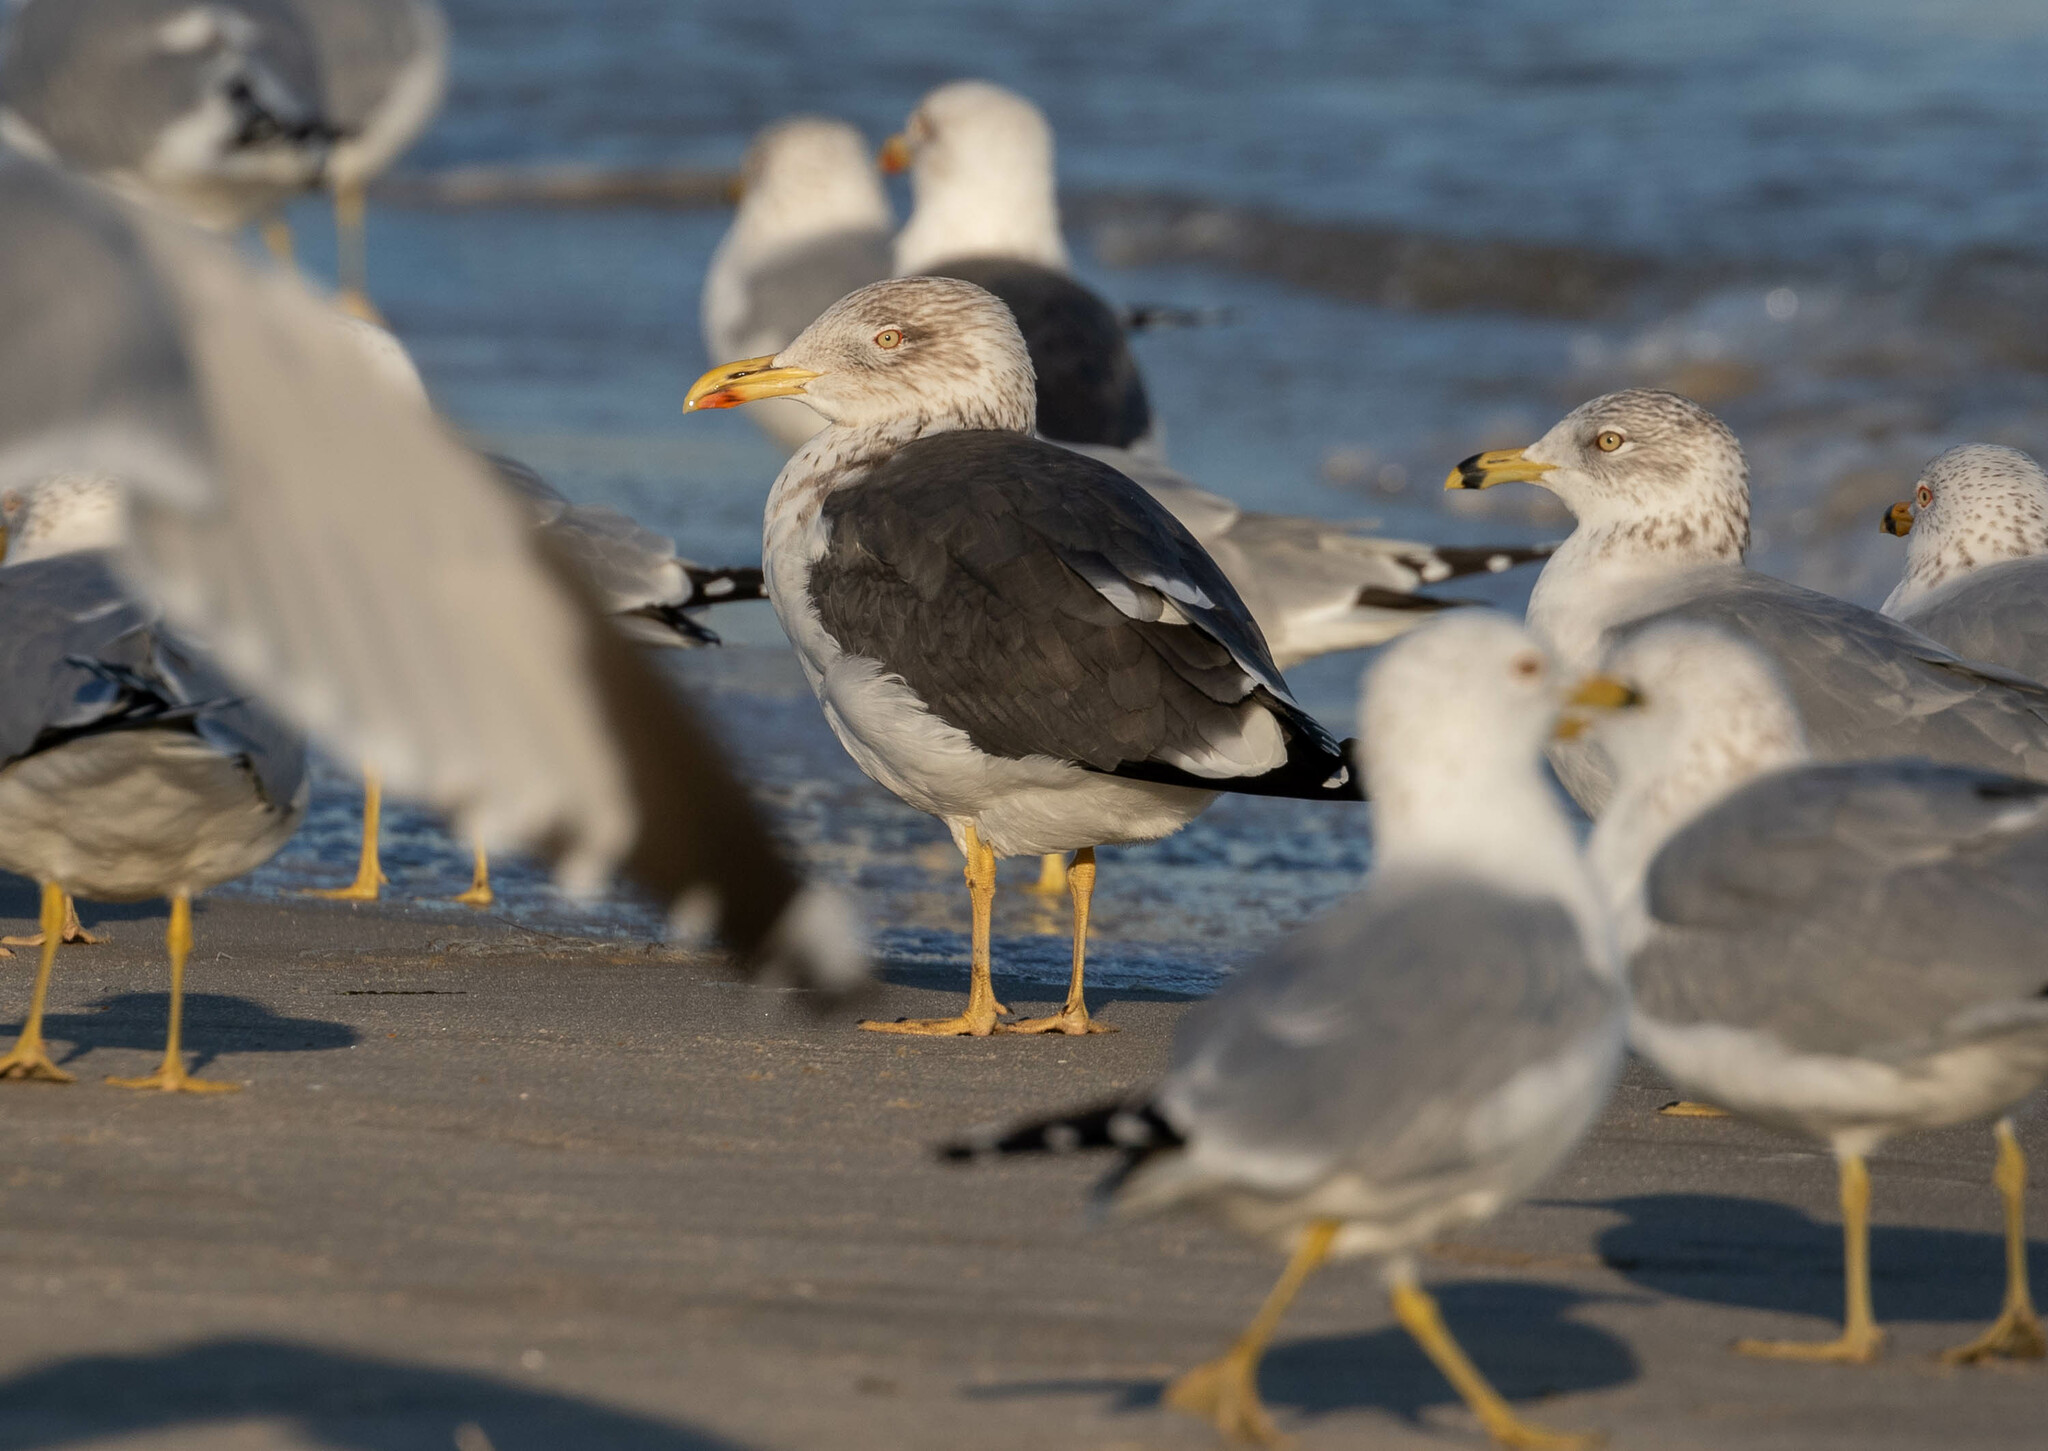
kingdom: Animalia
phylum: Chordata
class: Aves
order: Charadriiformes
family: Laridae
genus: Larus
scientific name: Larus fuscus
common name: Lesser black-backed gull
